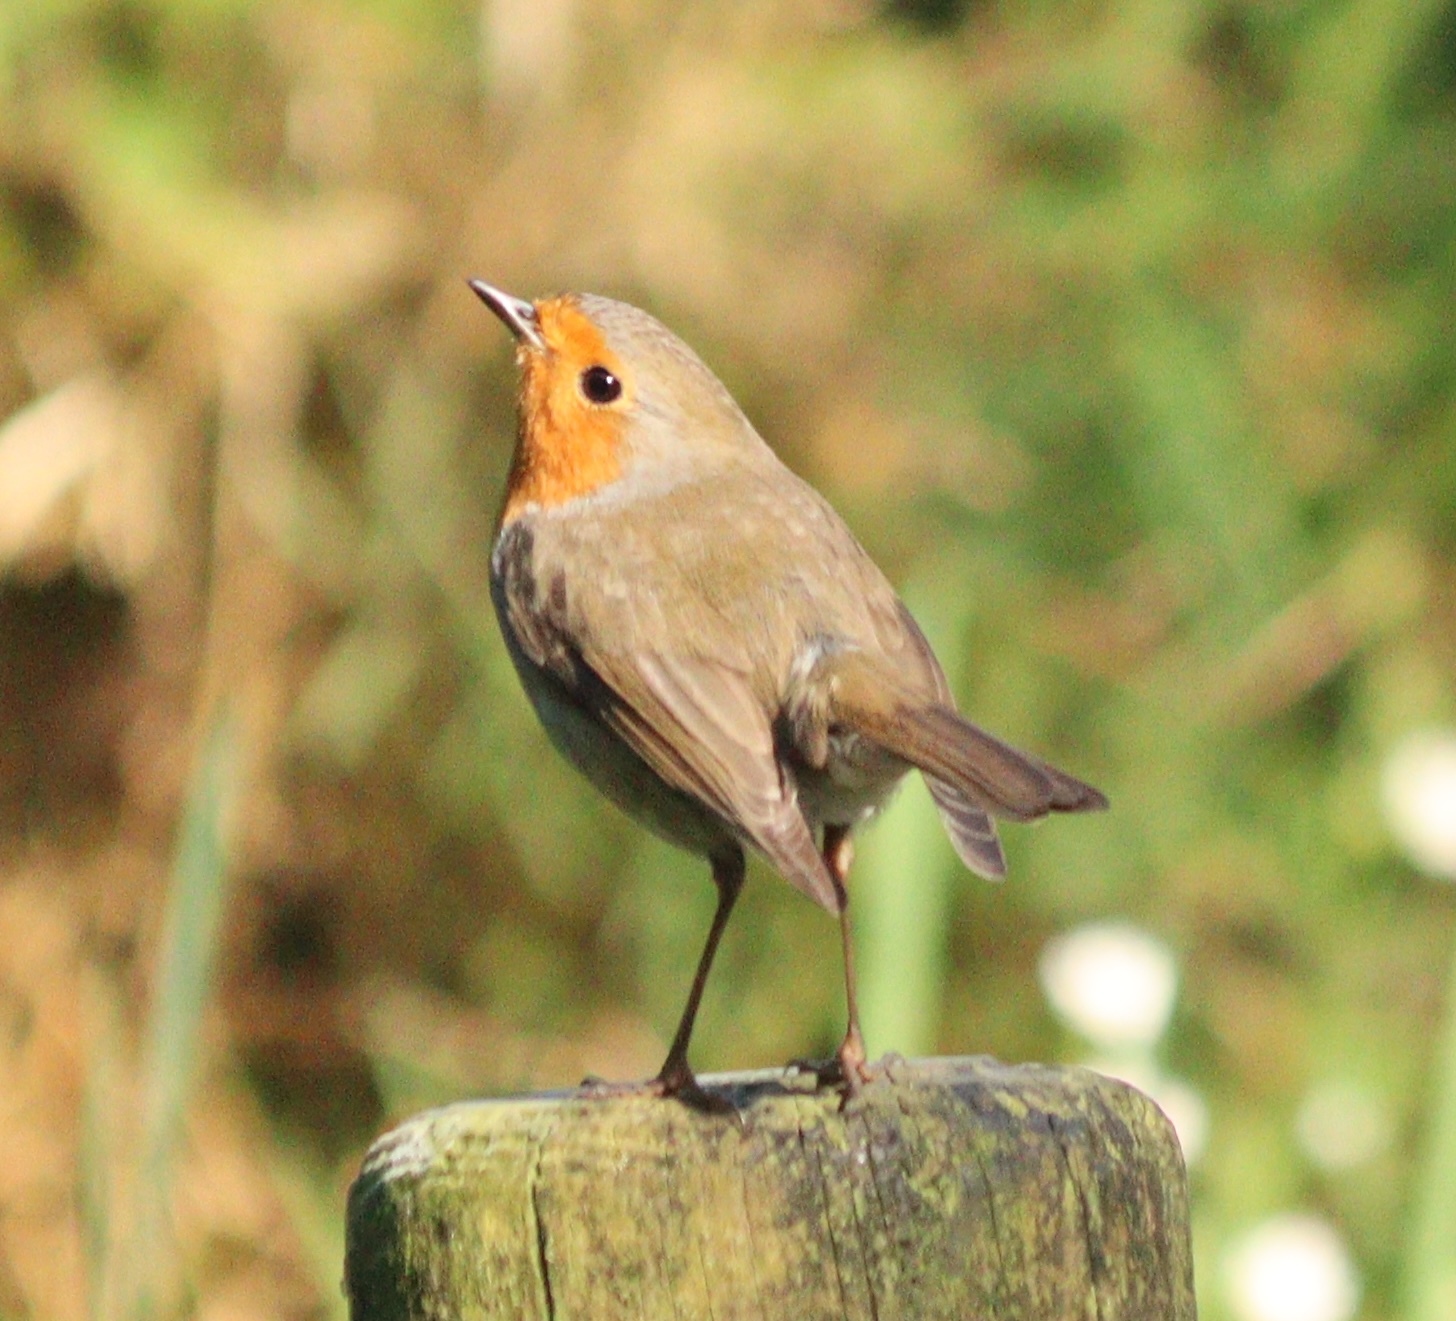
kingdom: Animalia
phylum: Chordata
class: Aves
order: Passeriformes
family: Muscicapidae
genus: Erithacus
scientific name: Erithacus rubecula
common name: European robin
